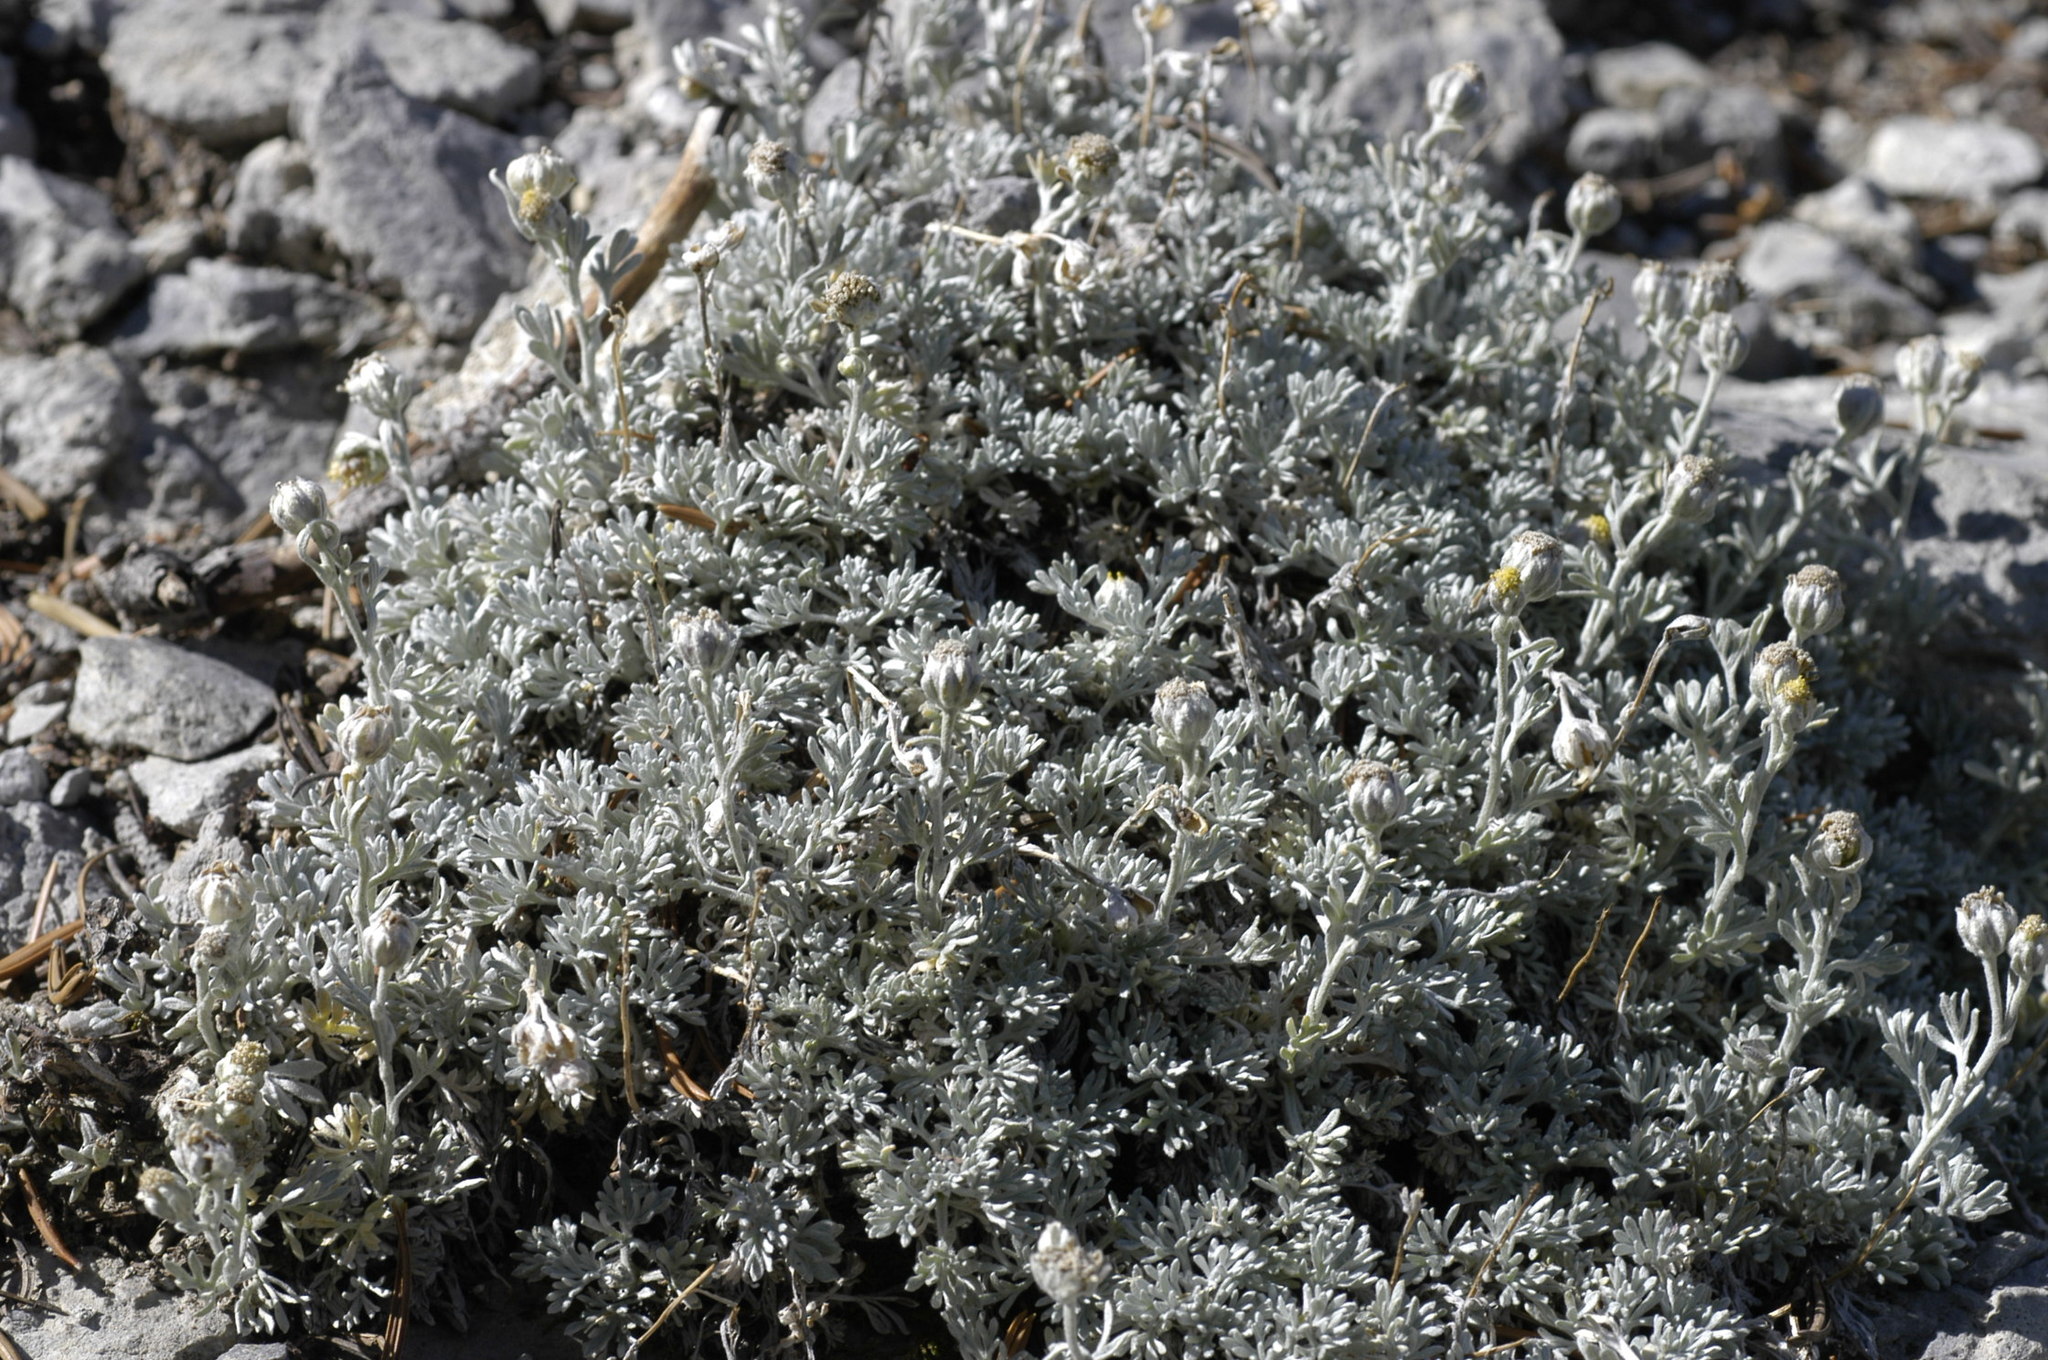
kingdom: Plantae
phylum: Tracheophyta
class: Magnoliopsida
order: Asterales
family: Asteraceae
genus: Artemisia
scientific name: Artemisia constricta
